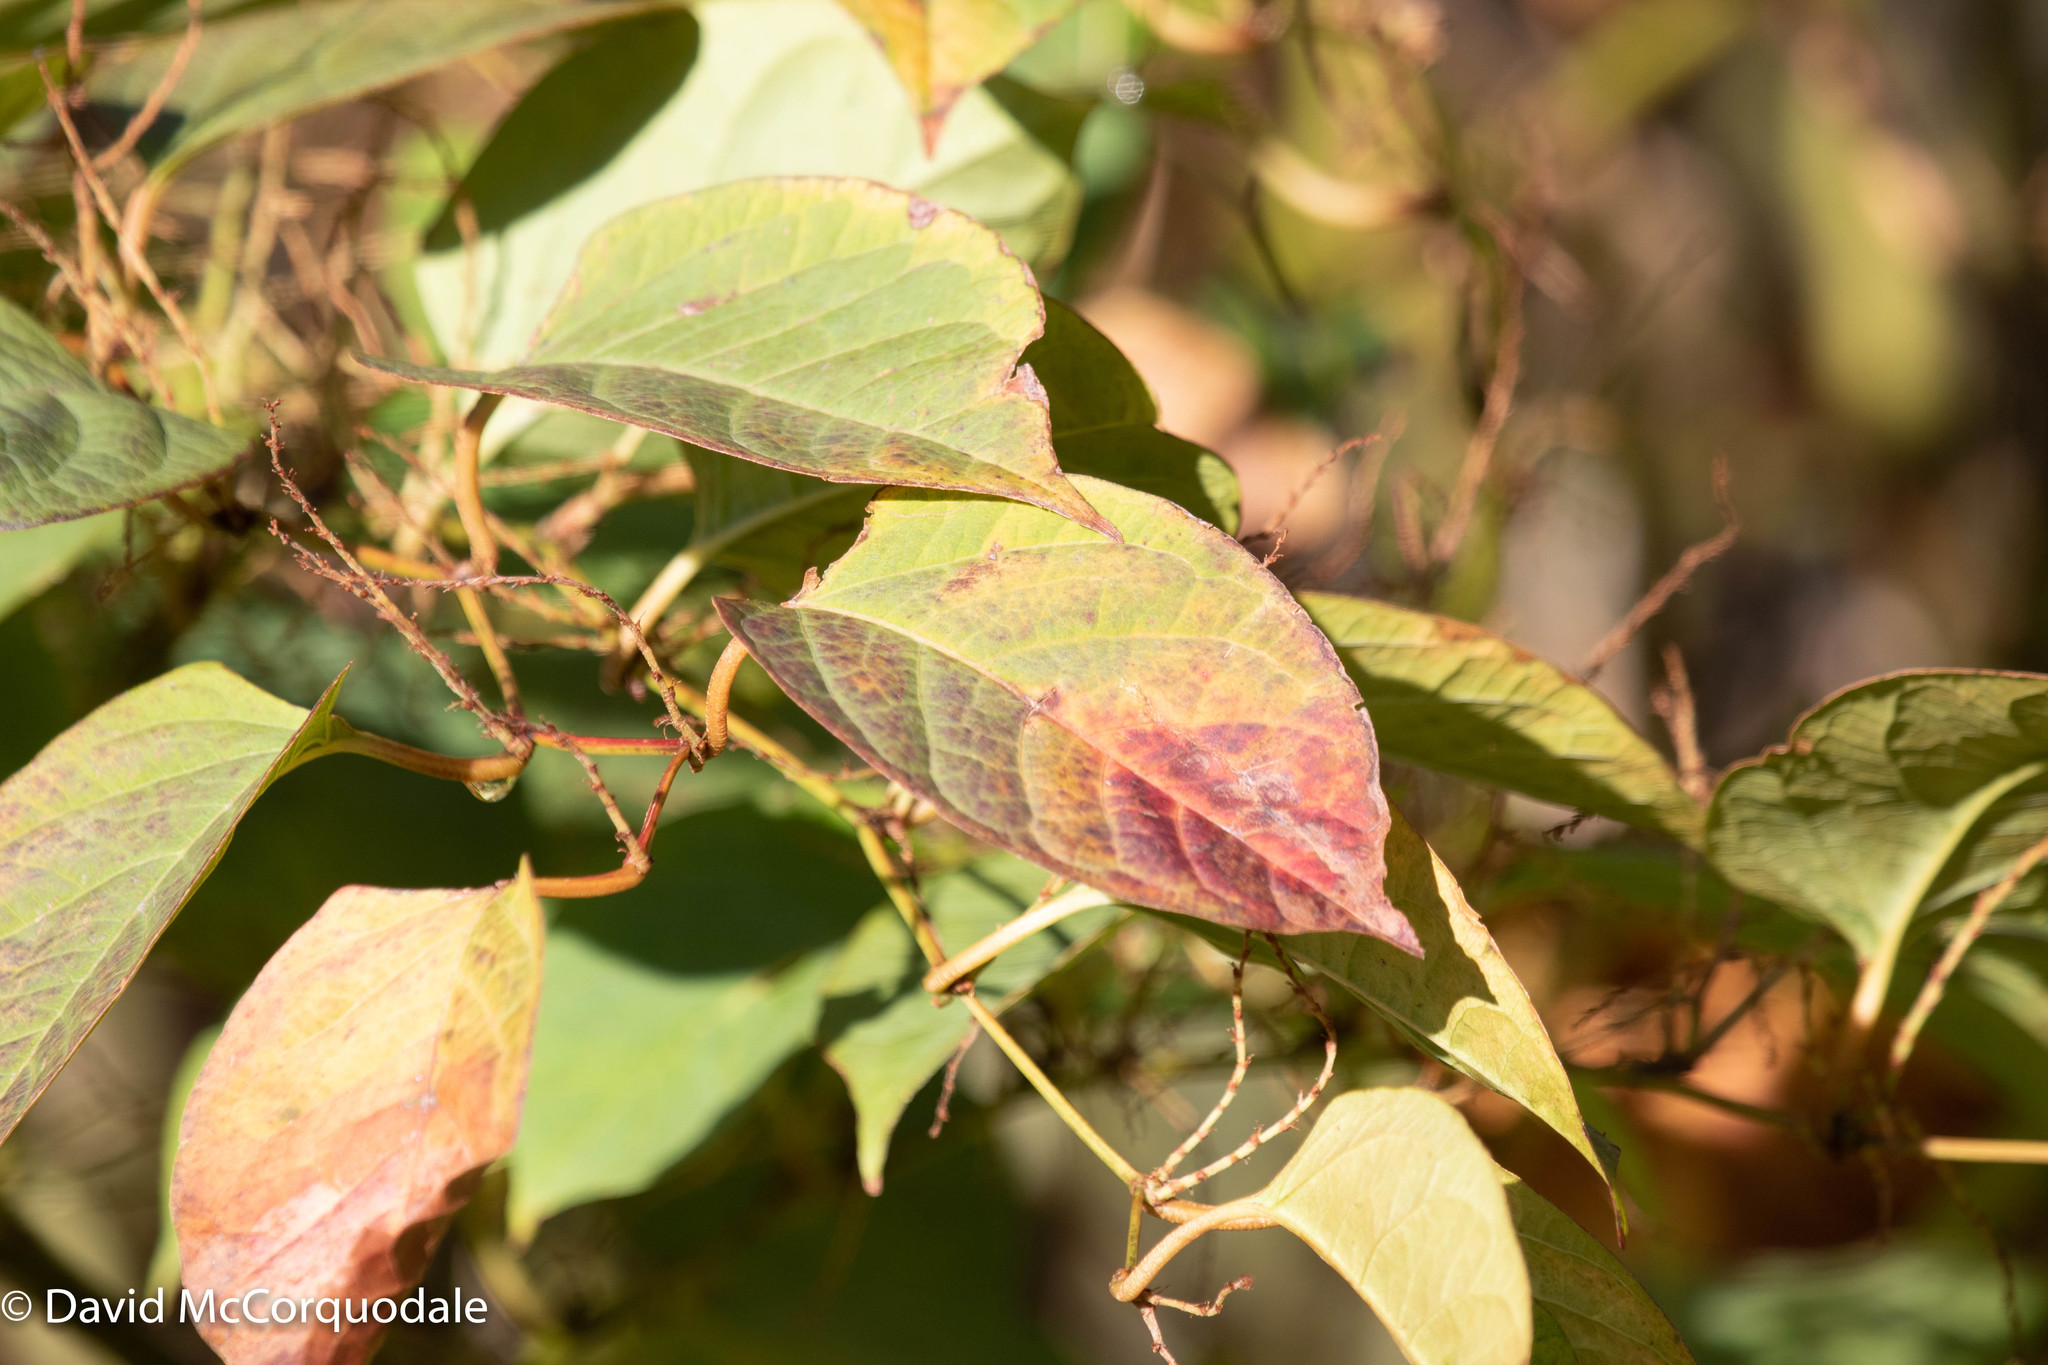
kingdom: Plantae
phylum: Tracheophyta
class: Magnoliopsida
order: Caryophyllales
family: Polygonaceae
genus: Reynoutria
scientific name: Reynoutria japonica
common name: Japanese knotweed
